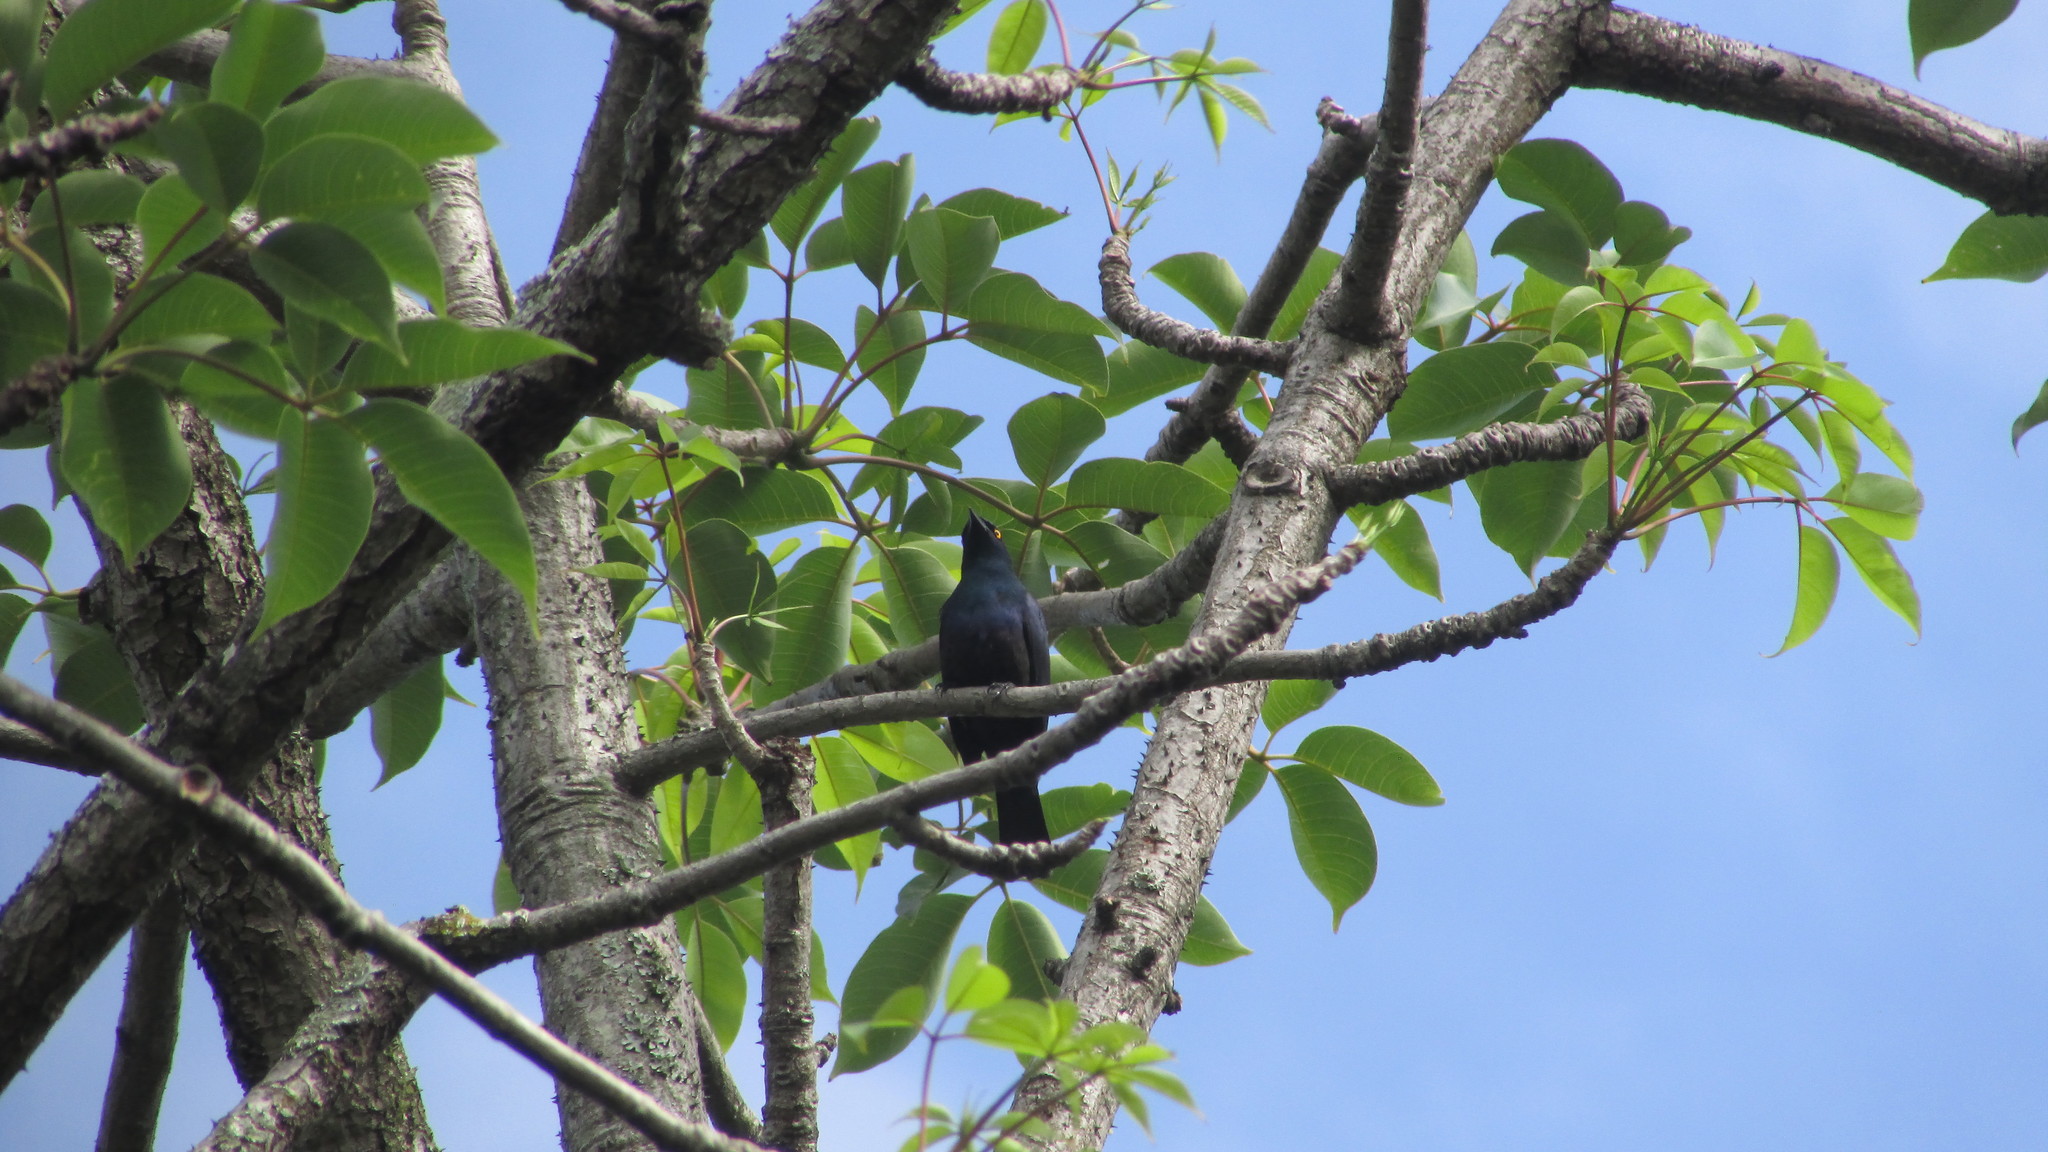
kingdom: Animalia
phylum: Chordata
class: Aves
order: Passeriformes
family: Sturnidae
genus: Notopholia
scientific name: Notopholia corrusca
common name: Black-bellied starling
